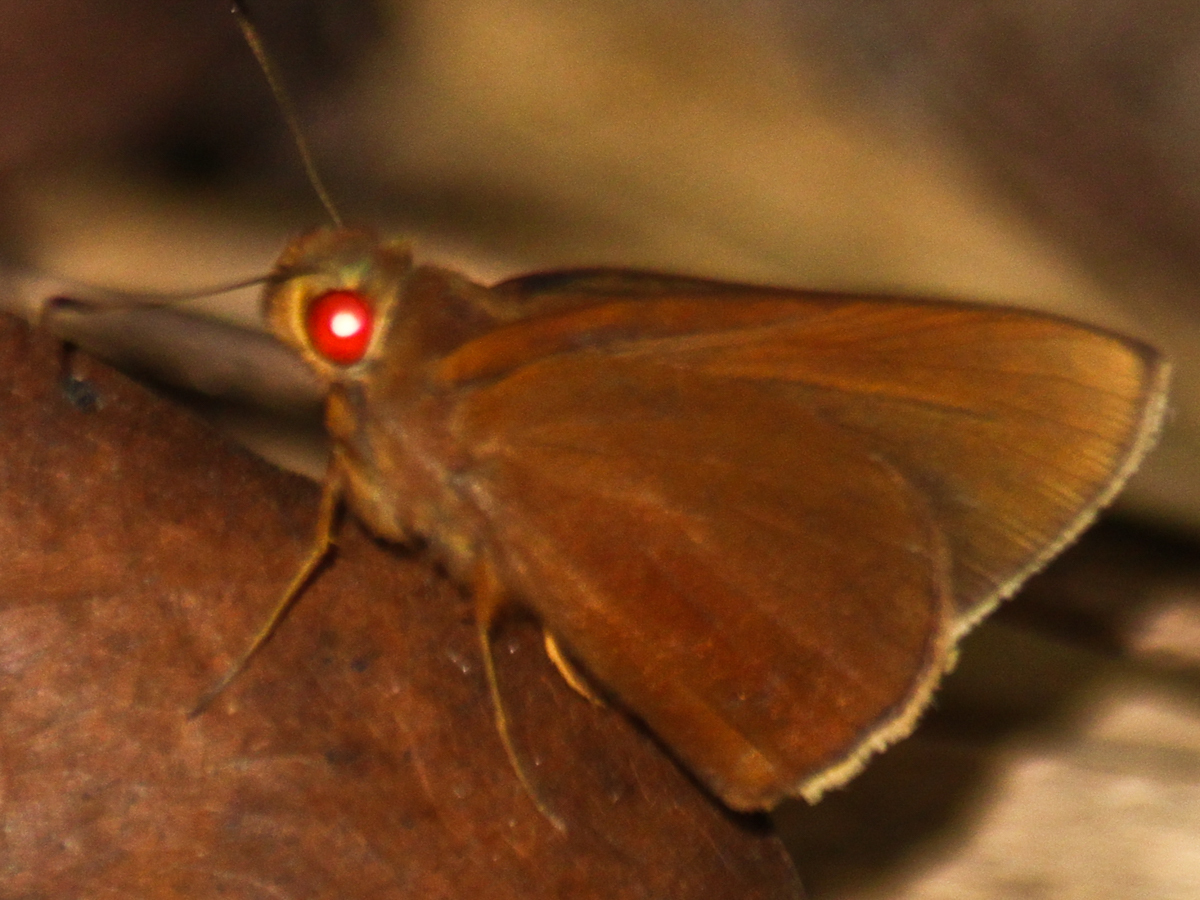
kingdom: Animalia
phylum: Arthropoda
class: Insecta
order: Lepidoptera
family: Hesperiidae
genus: Matapa
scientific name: Matapa aria
